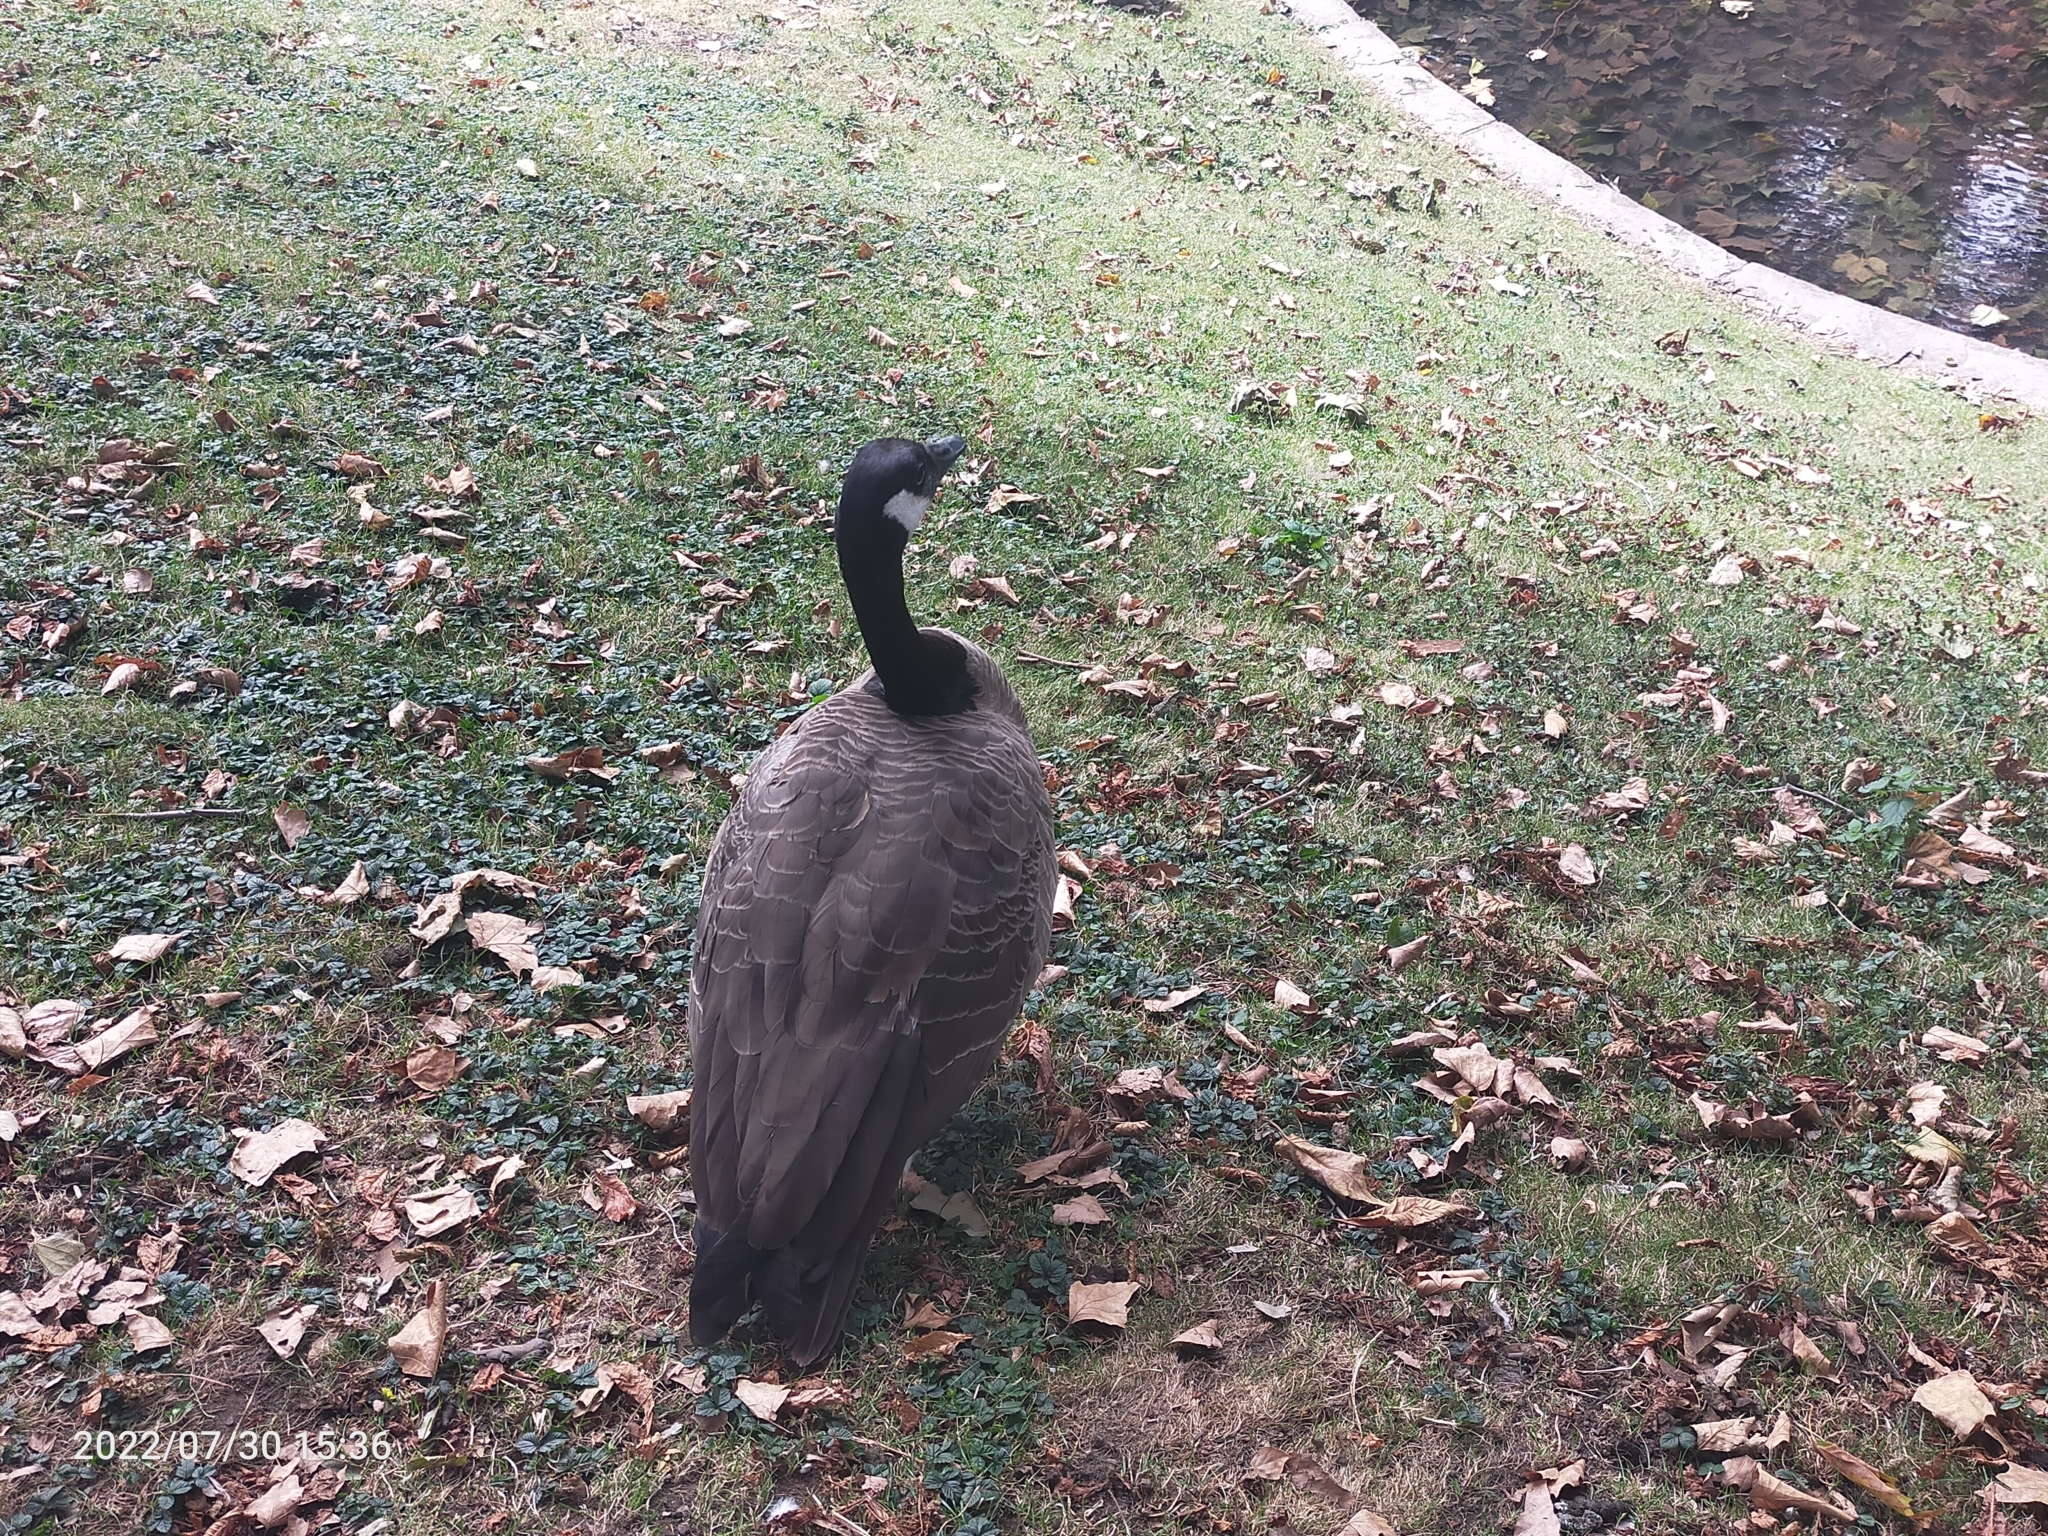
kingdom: Animalia
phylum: Chordata
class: Aves
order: Anseriformes
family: Anatidae
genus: Branta
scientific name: Branta canadensis
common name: Canada goose
